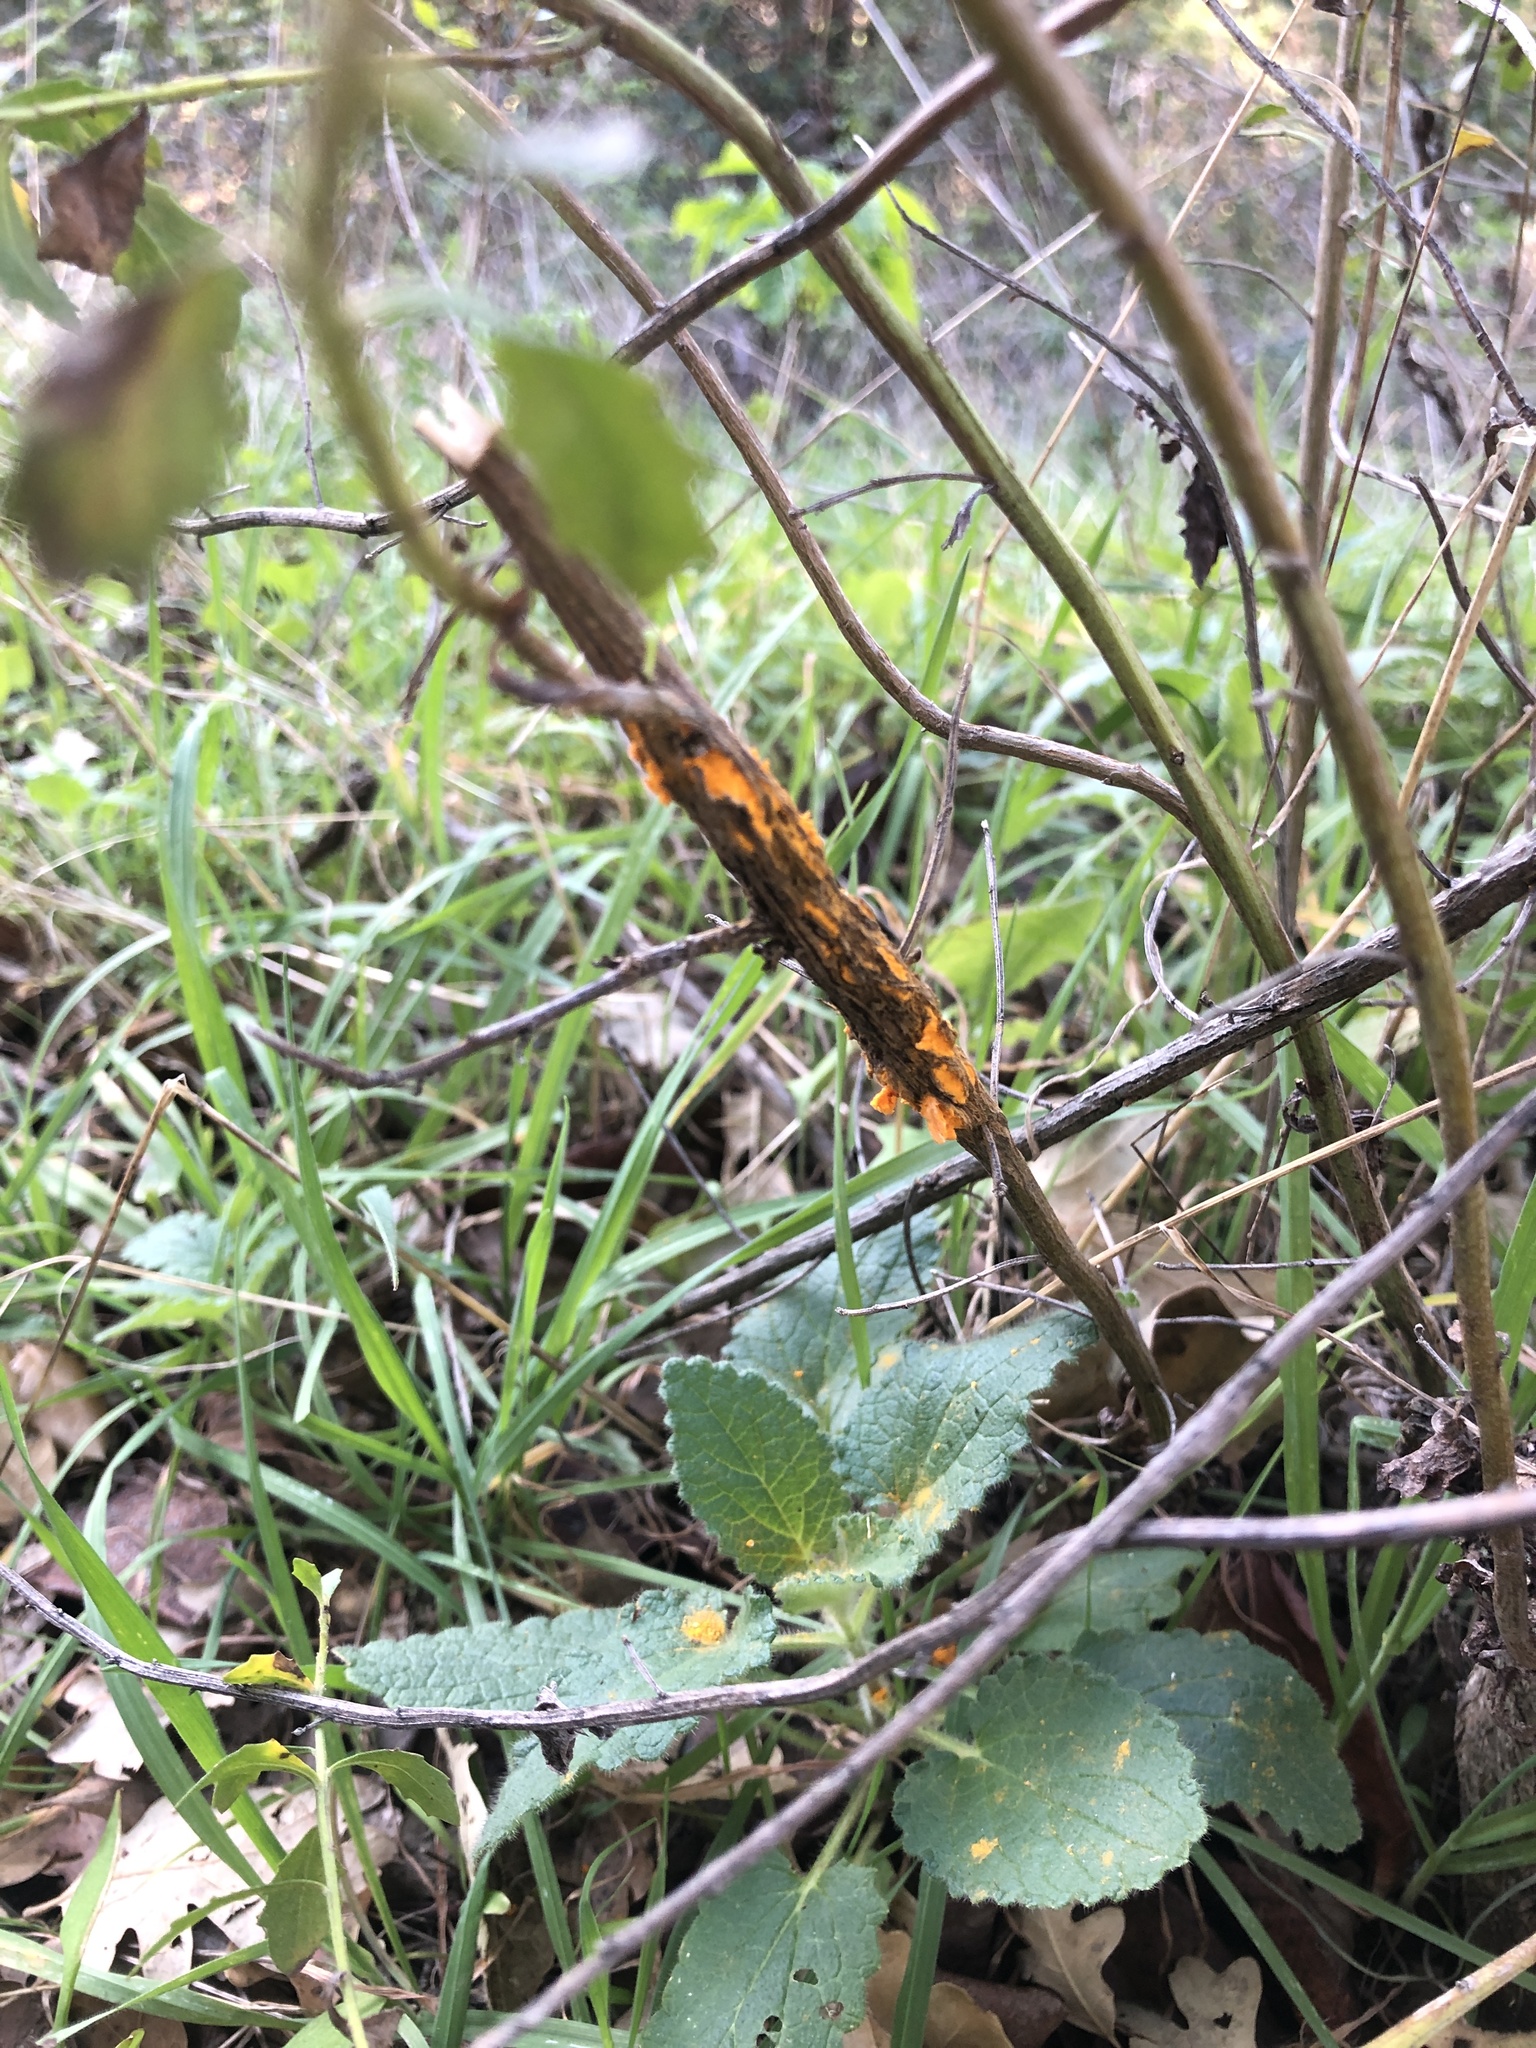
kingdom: Fungi
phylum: Basidiomycota
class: Pucciniomycetes
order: Pucciniales
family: Pucciniaceae
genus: Eriosporangium
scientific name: Eriosporangium evadens
